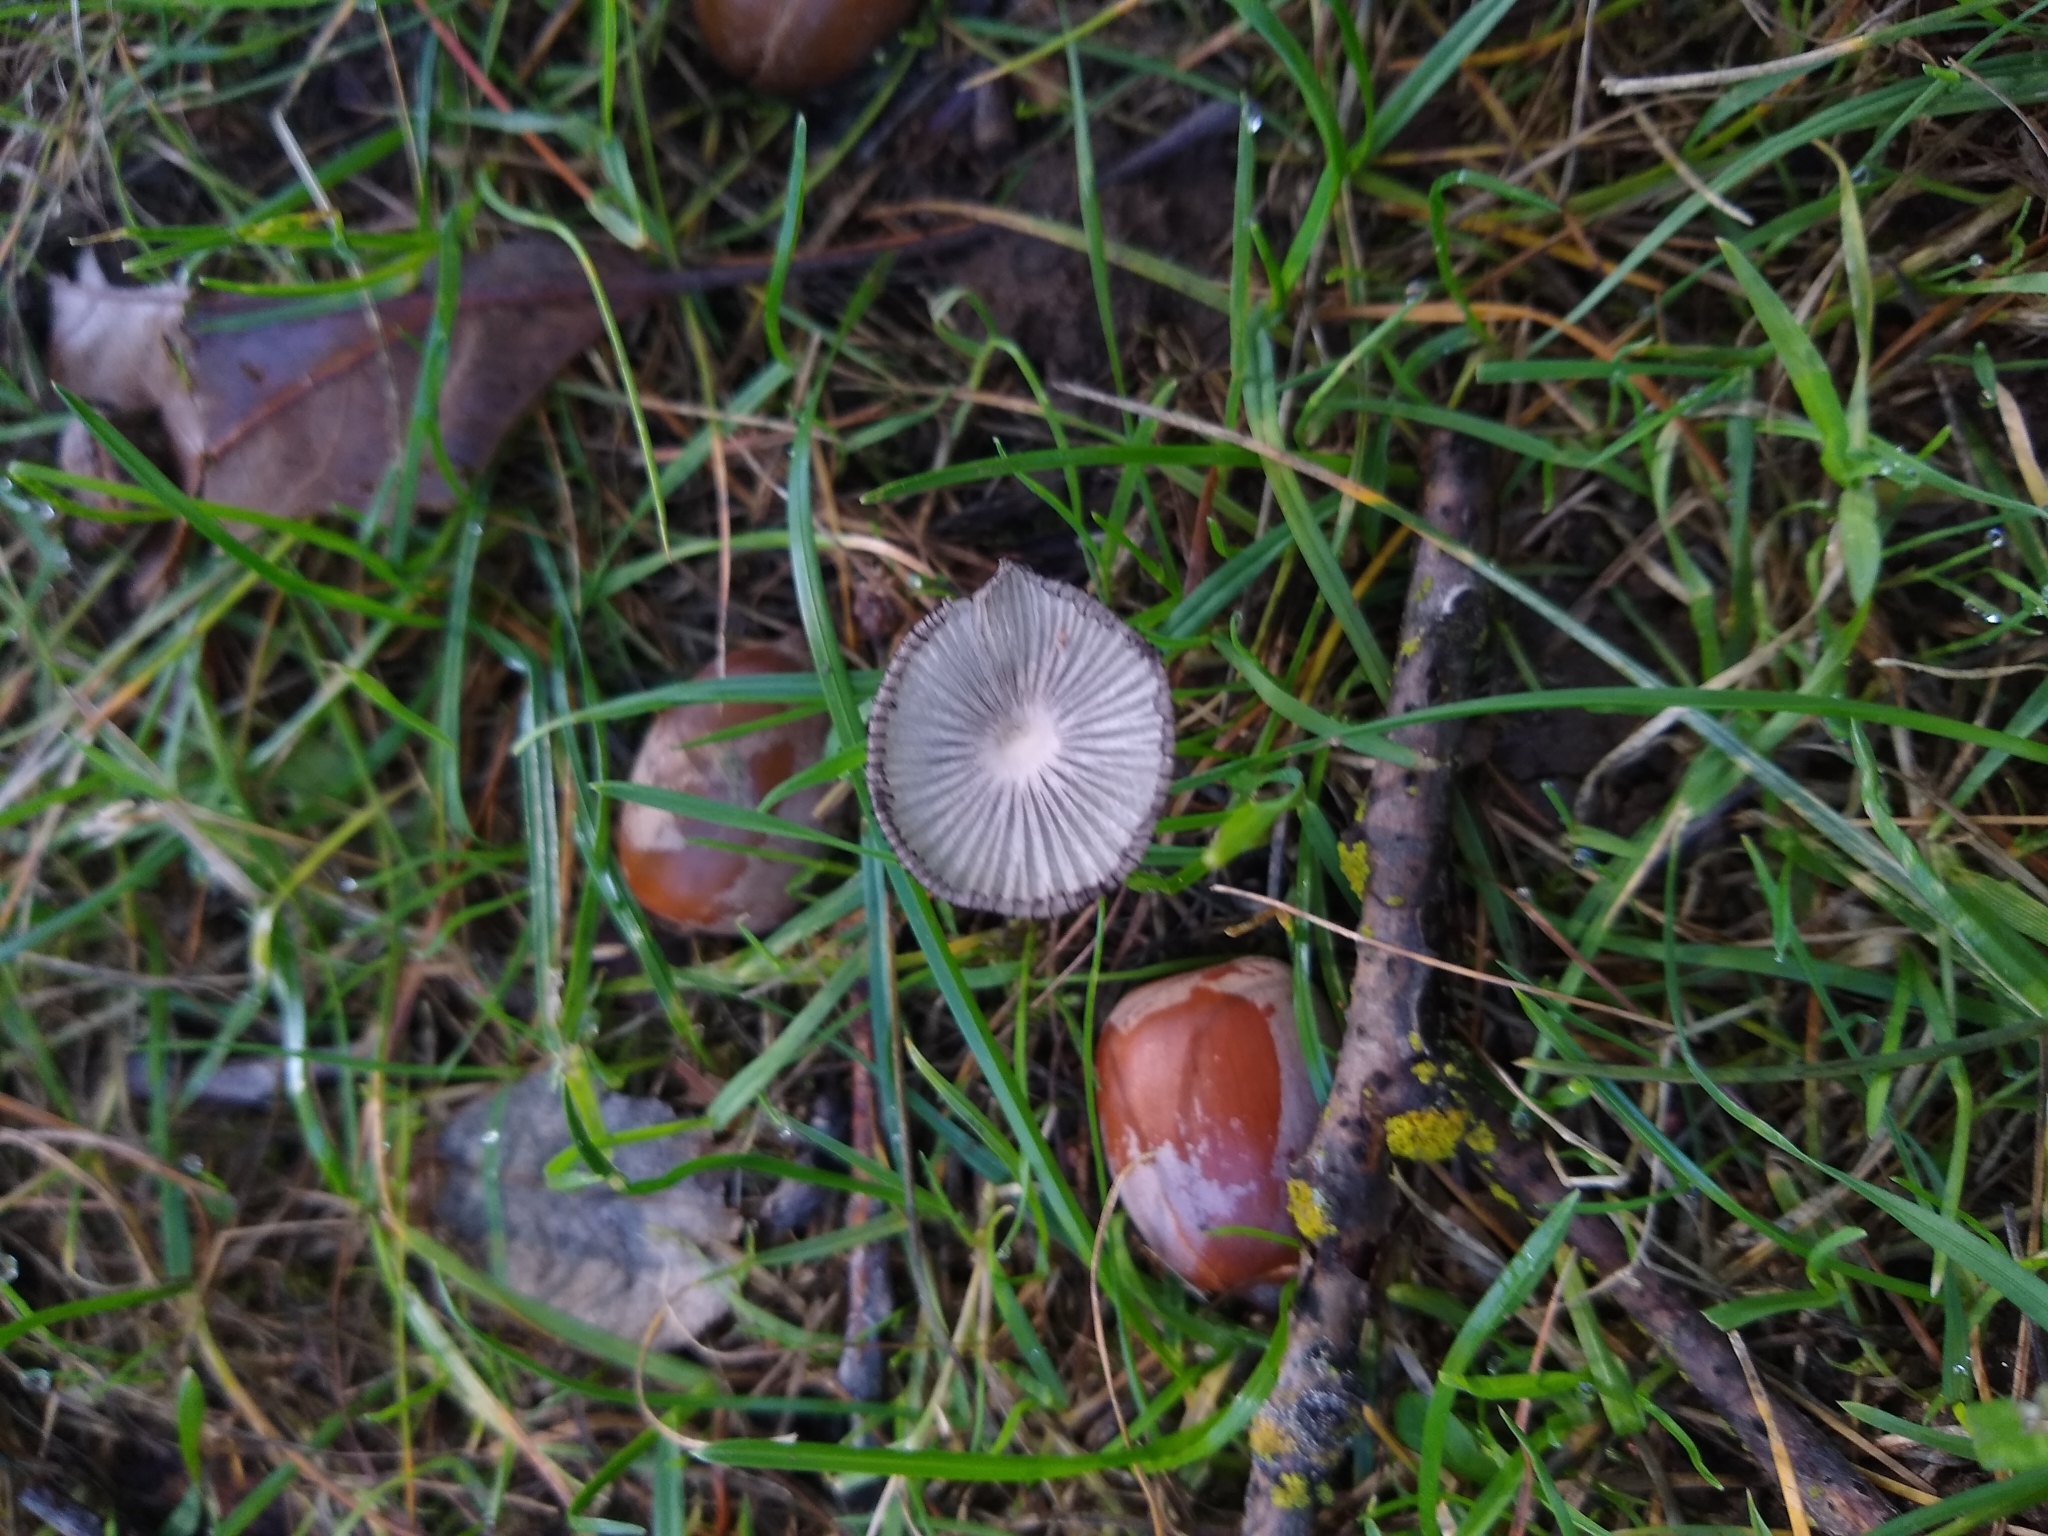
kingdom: Fungi
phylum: Basidiomycota
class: Agaricomycetes
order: Agaricales
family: Psathyrellaceae
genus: Coprinopsis
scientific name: Coprinopsis lagopus
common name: Hare'sfoot inkcap
